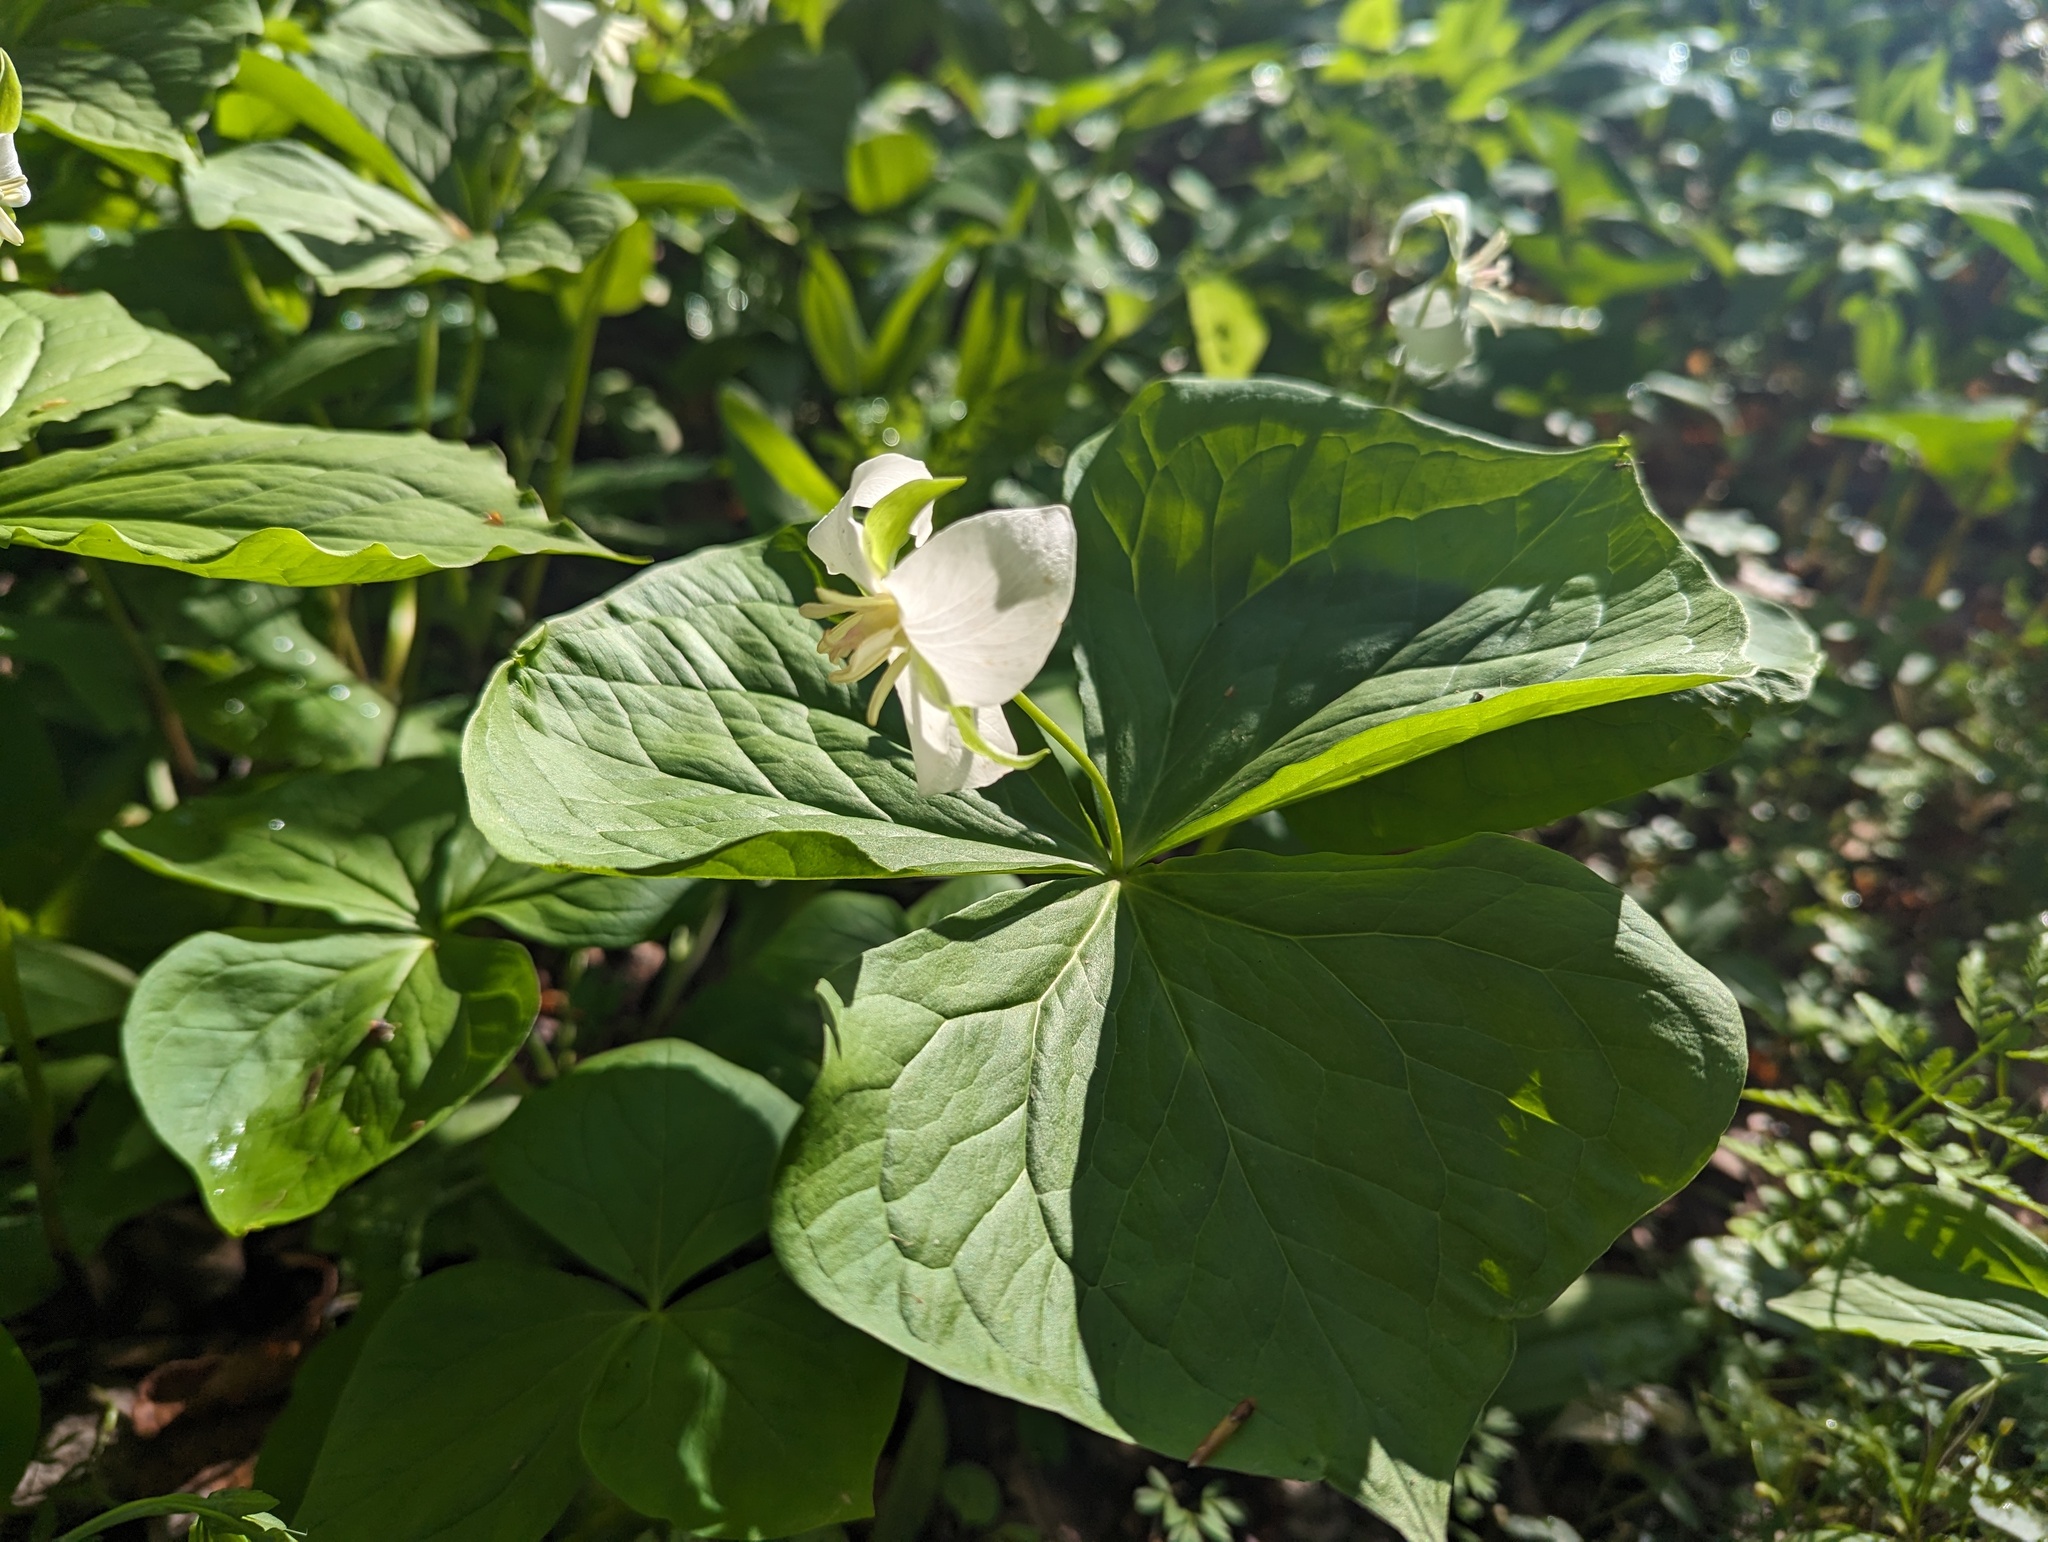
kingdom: Plantae
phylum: Tracheophyta
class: Liliopsida
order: Liliales
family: Melanthiaceae
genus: Trillium
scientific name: Trillium flexipes
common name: Drooping trillium
